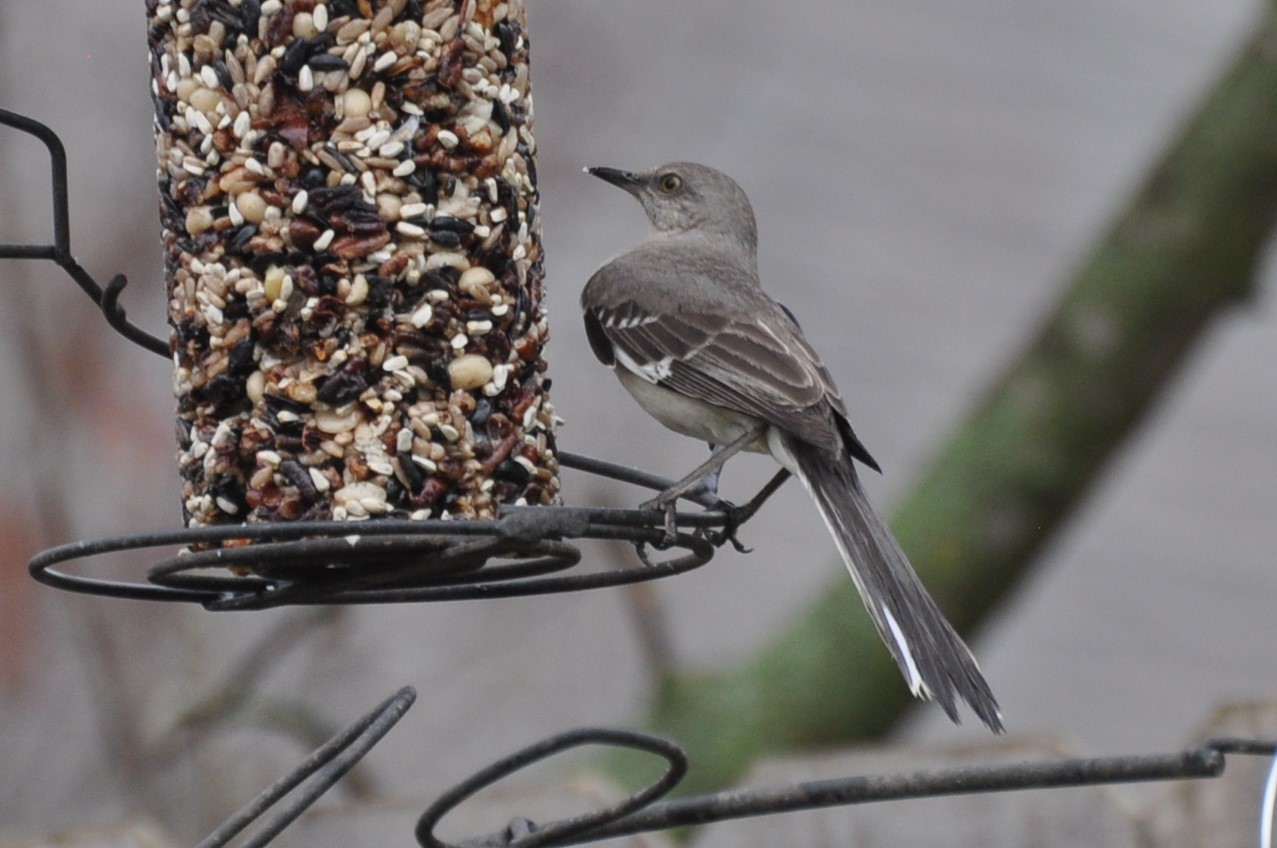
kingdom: Animalia
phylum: Chordata
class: Aves
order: Passeriformes
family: Mimidae
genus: Mimus
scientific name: Mimus polyglottos
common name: Northern mockingbird
